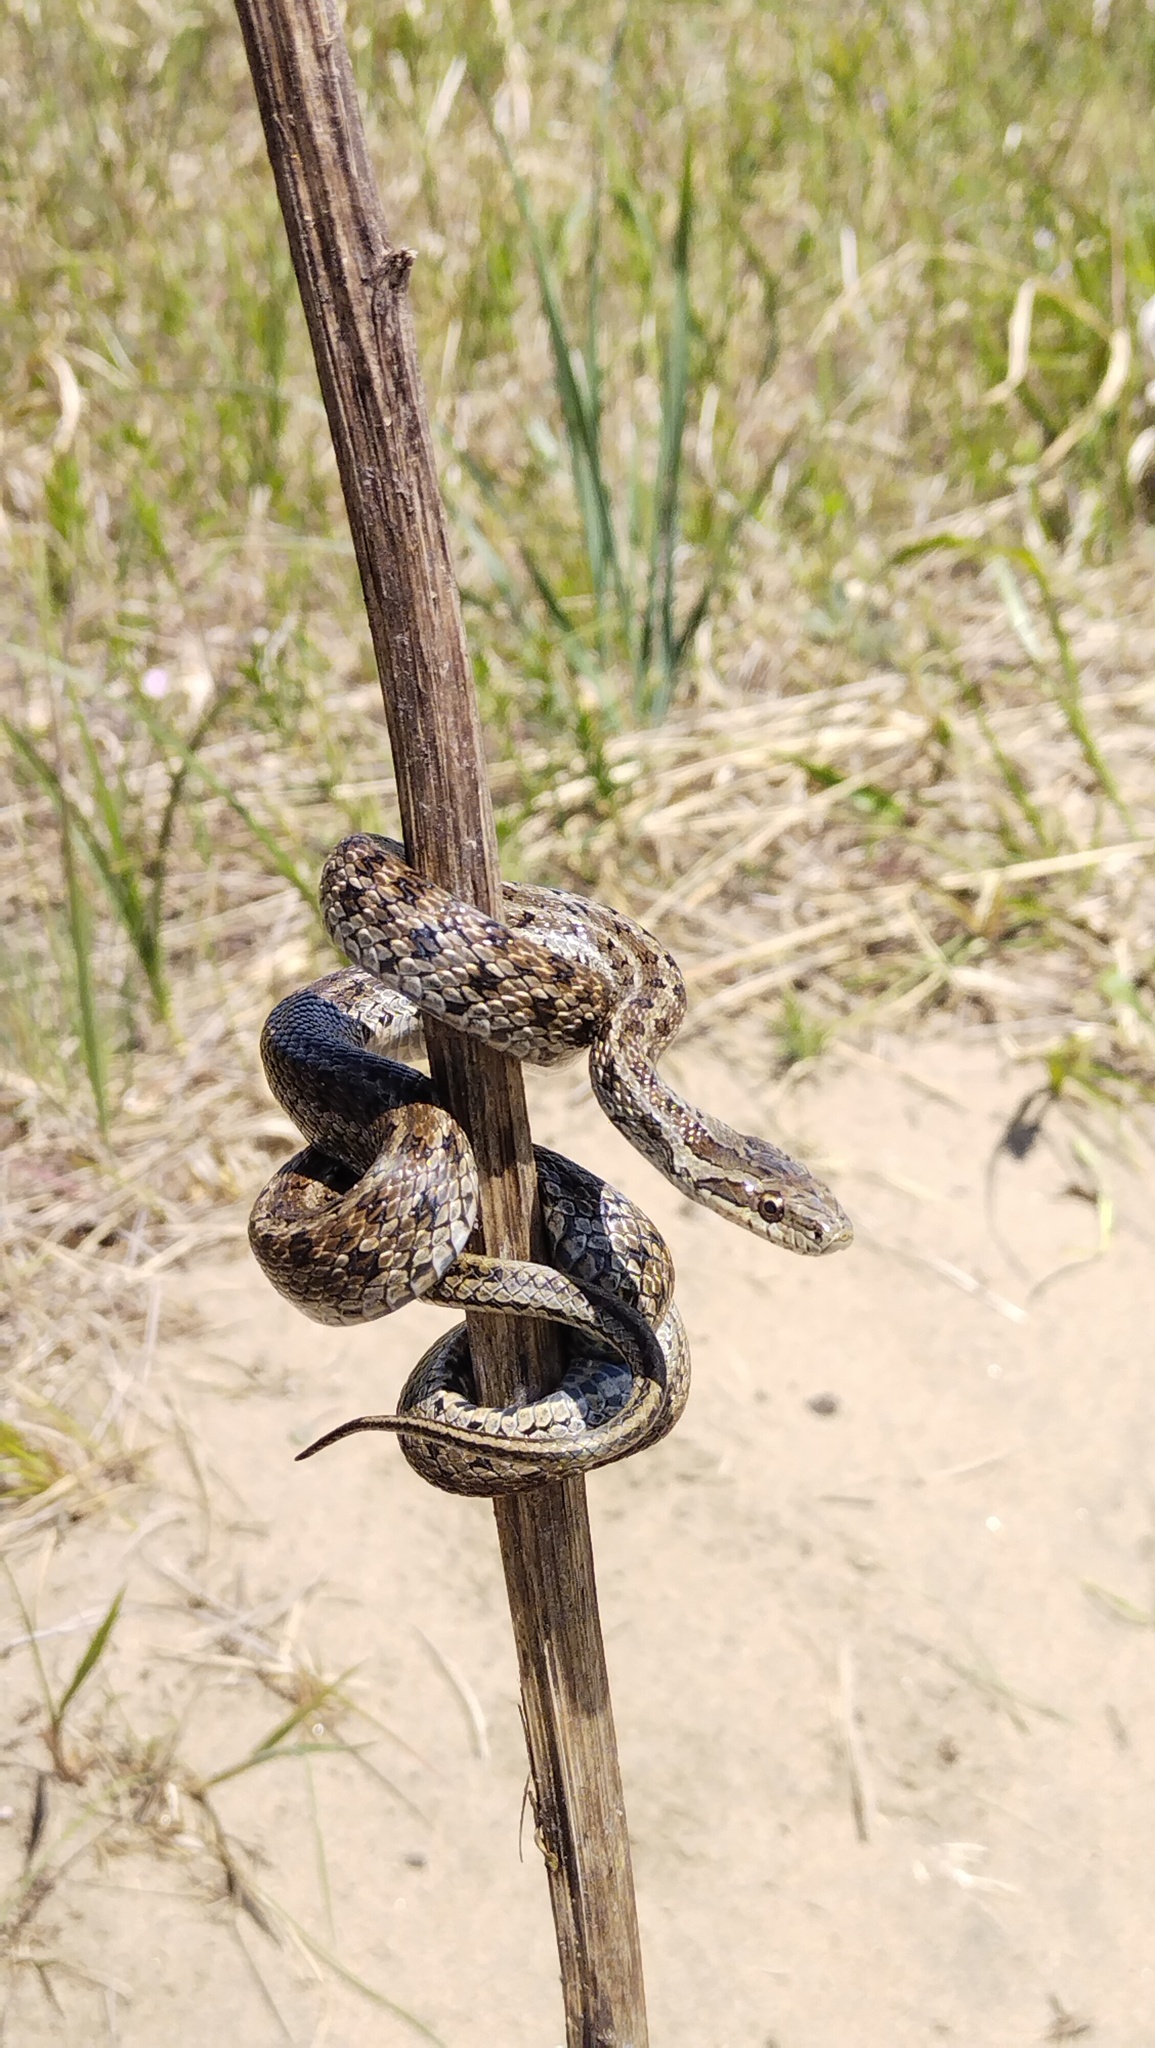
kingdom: Animalia
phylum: Chordata
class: Squamata
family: Colubridae
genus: Elaphe
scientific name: Elaphe dione
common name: Dione ratsnake
